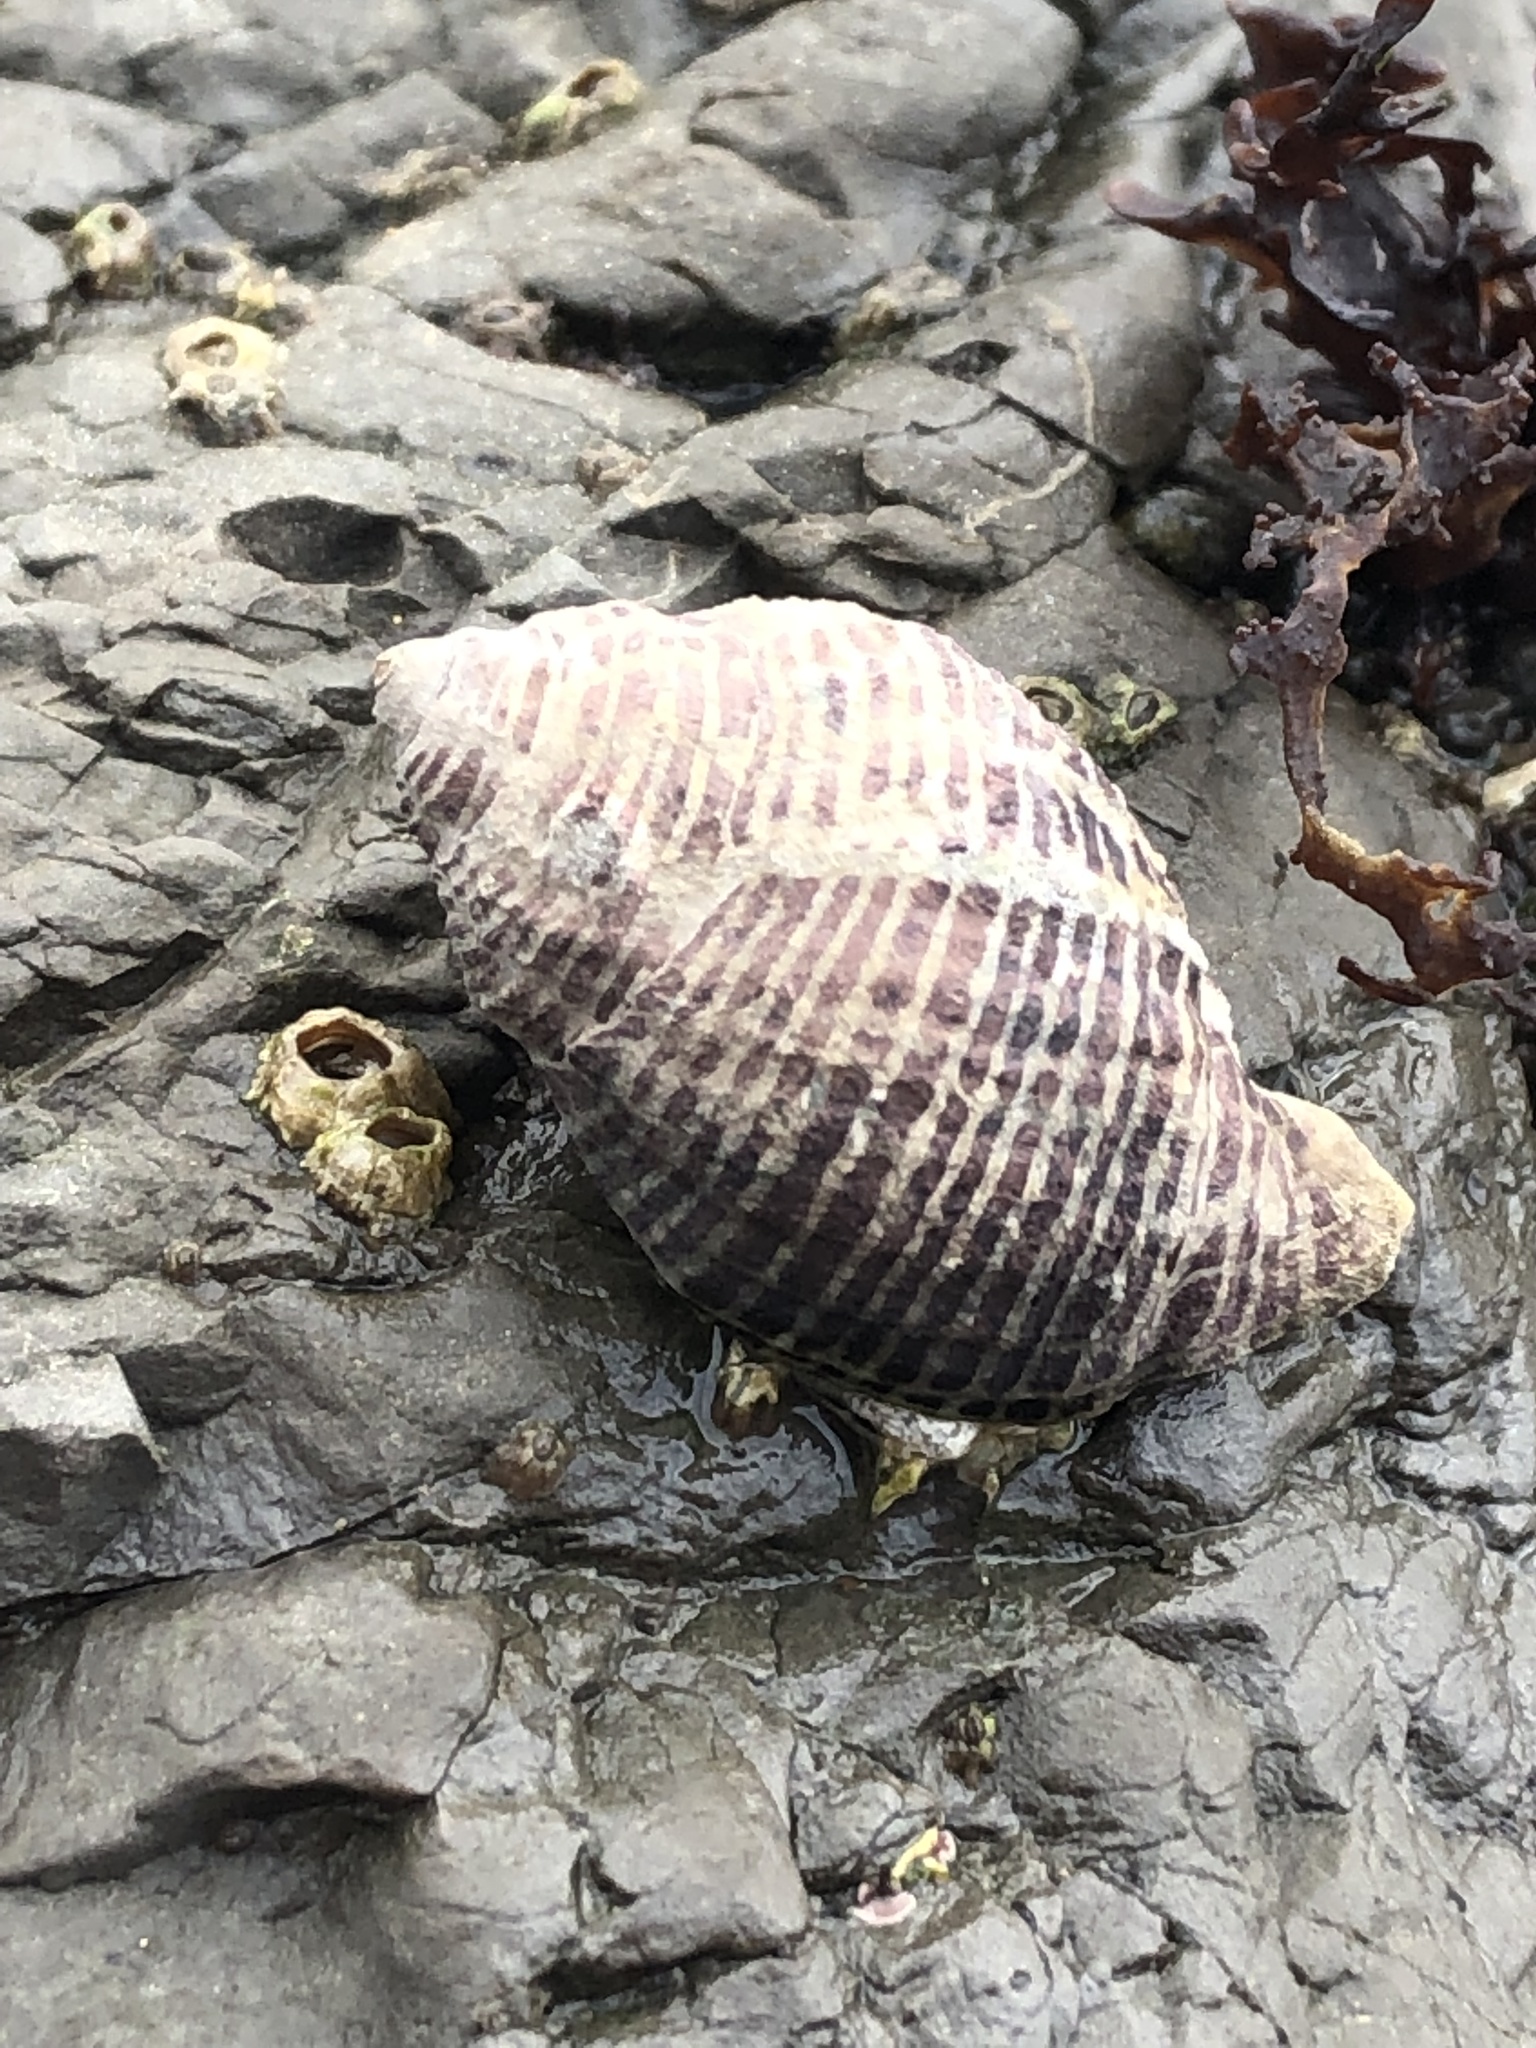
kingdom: Animalia
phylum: Mollusca
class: Gastropoda
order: Neogastropoda
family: Muricidae
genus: Acanthinucella
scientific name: Acanthinucella spirata
